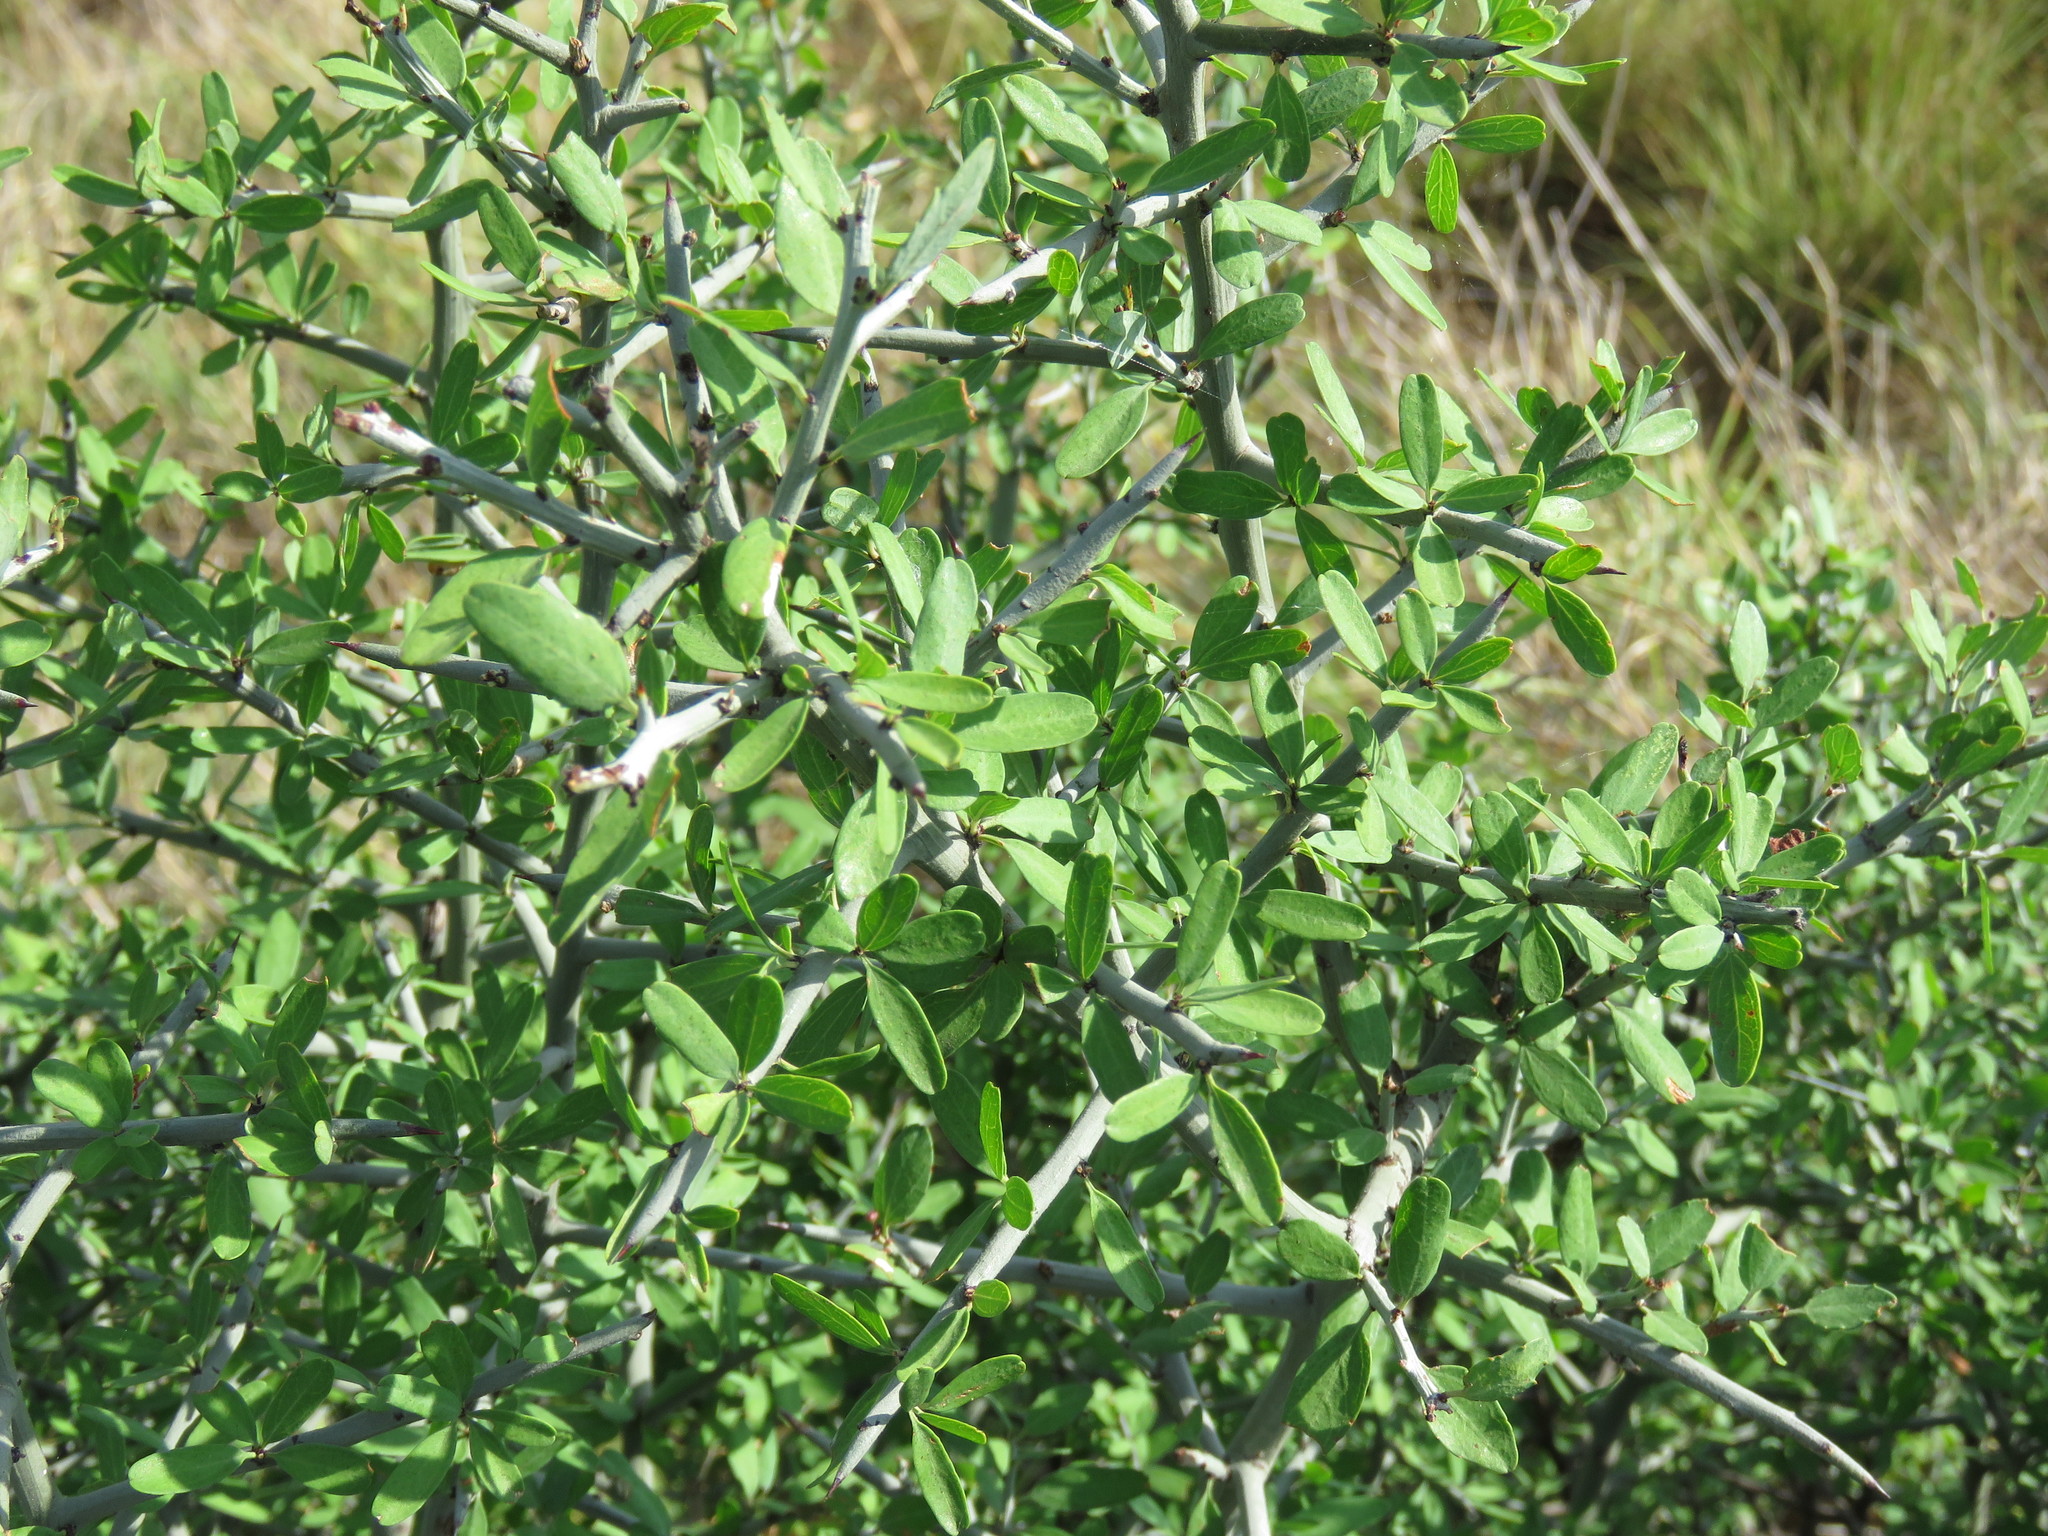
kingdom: Plantae
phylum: Tracheophyta
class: Magnoliopsida
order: Rosales
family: Rhamnaceae
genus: Sarcomphalus
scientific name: Sarcomphalus obtusifolius
